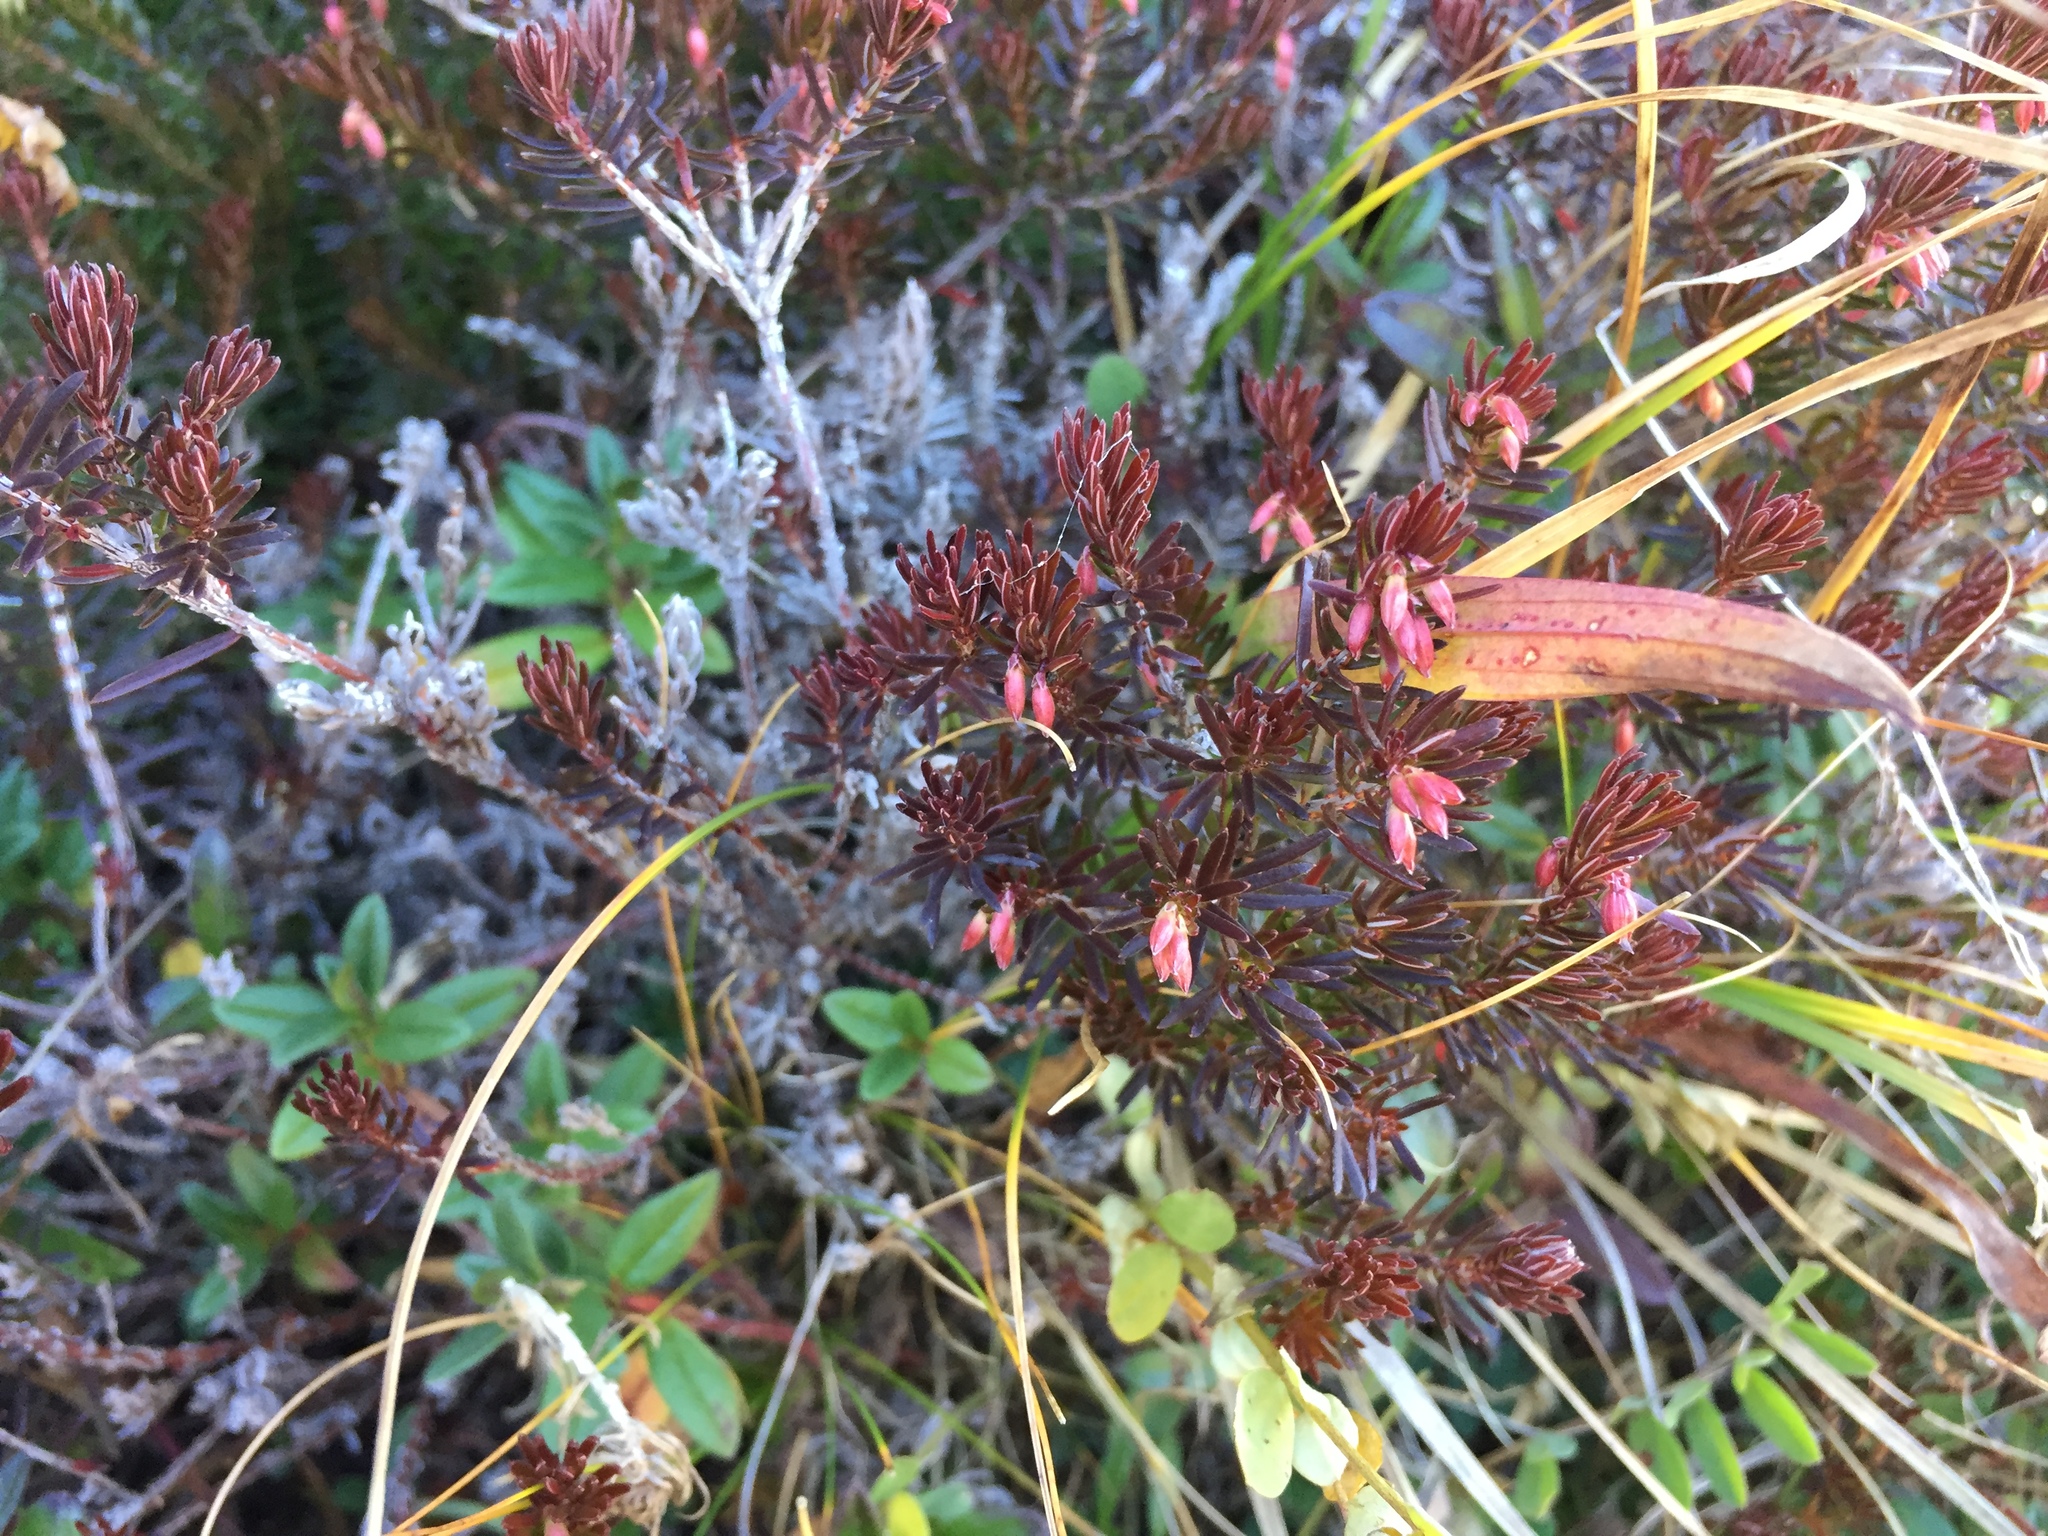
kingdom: Plantae
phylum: Tracheophyta
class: Magnoliopsida
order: Ericales
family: Ericaceae
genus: Erica
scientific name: Erica carnea
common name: Winter heath
